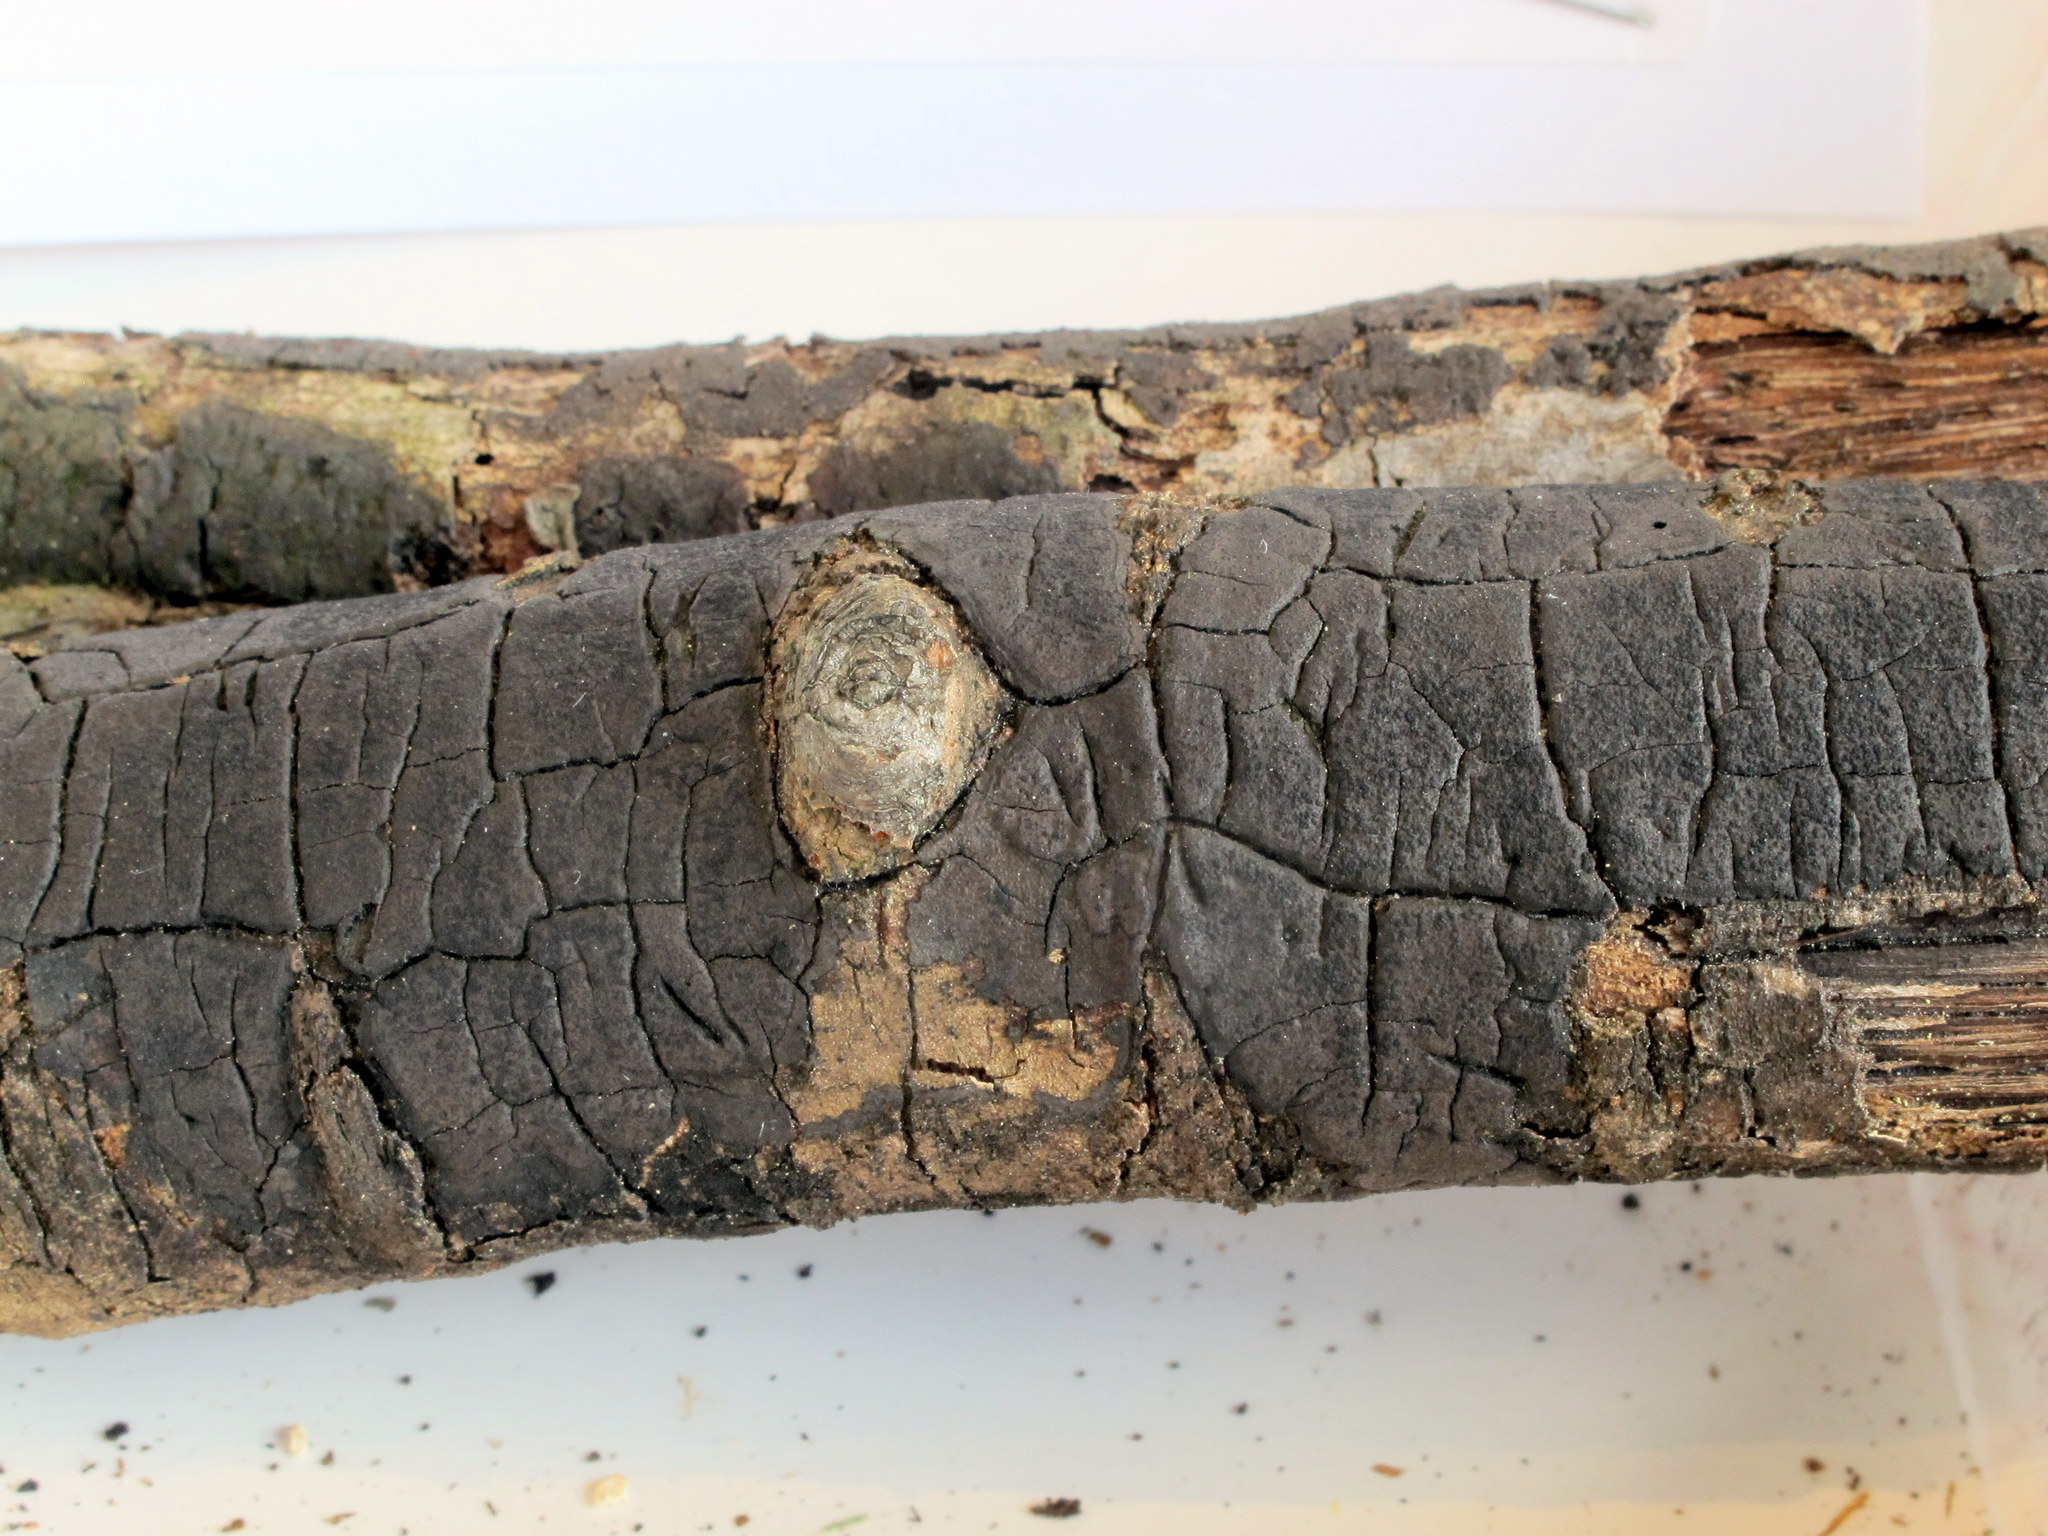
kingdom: Fungi
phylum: Ascomycota
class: Sordariomycetes
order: Xylariales
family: Diatrypaceae
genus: Diatrype
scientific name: Diatrype stigma
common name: Common tarcrust
